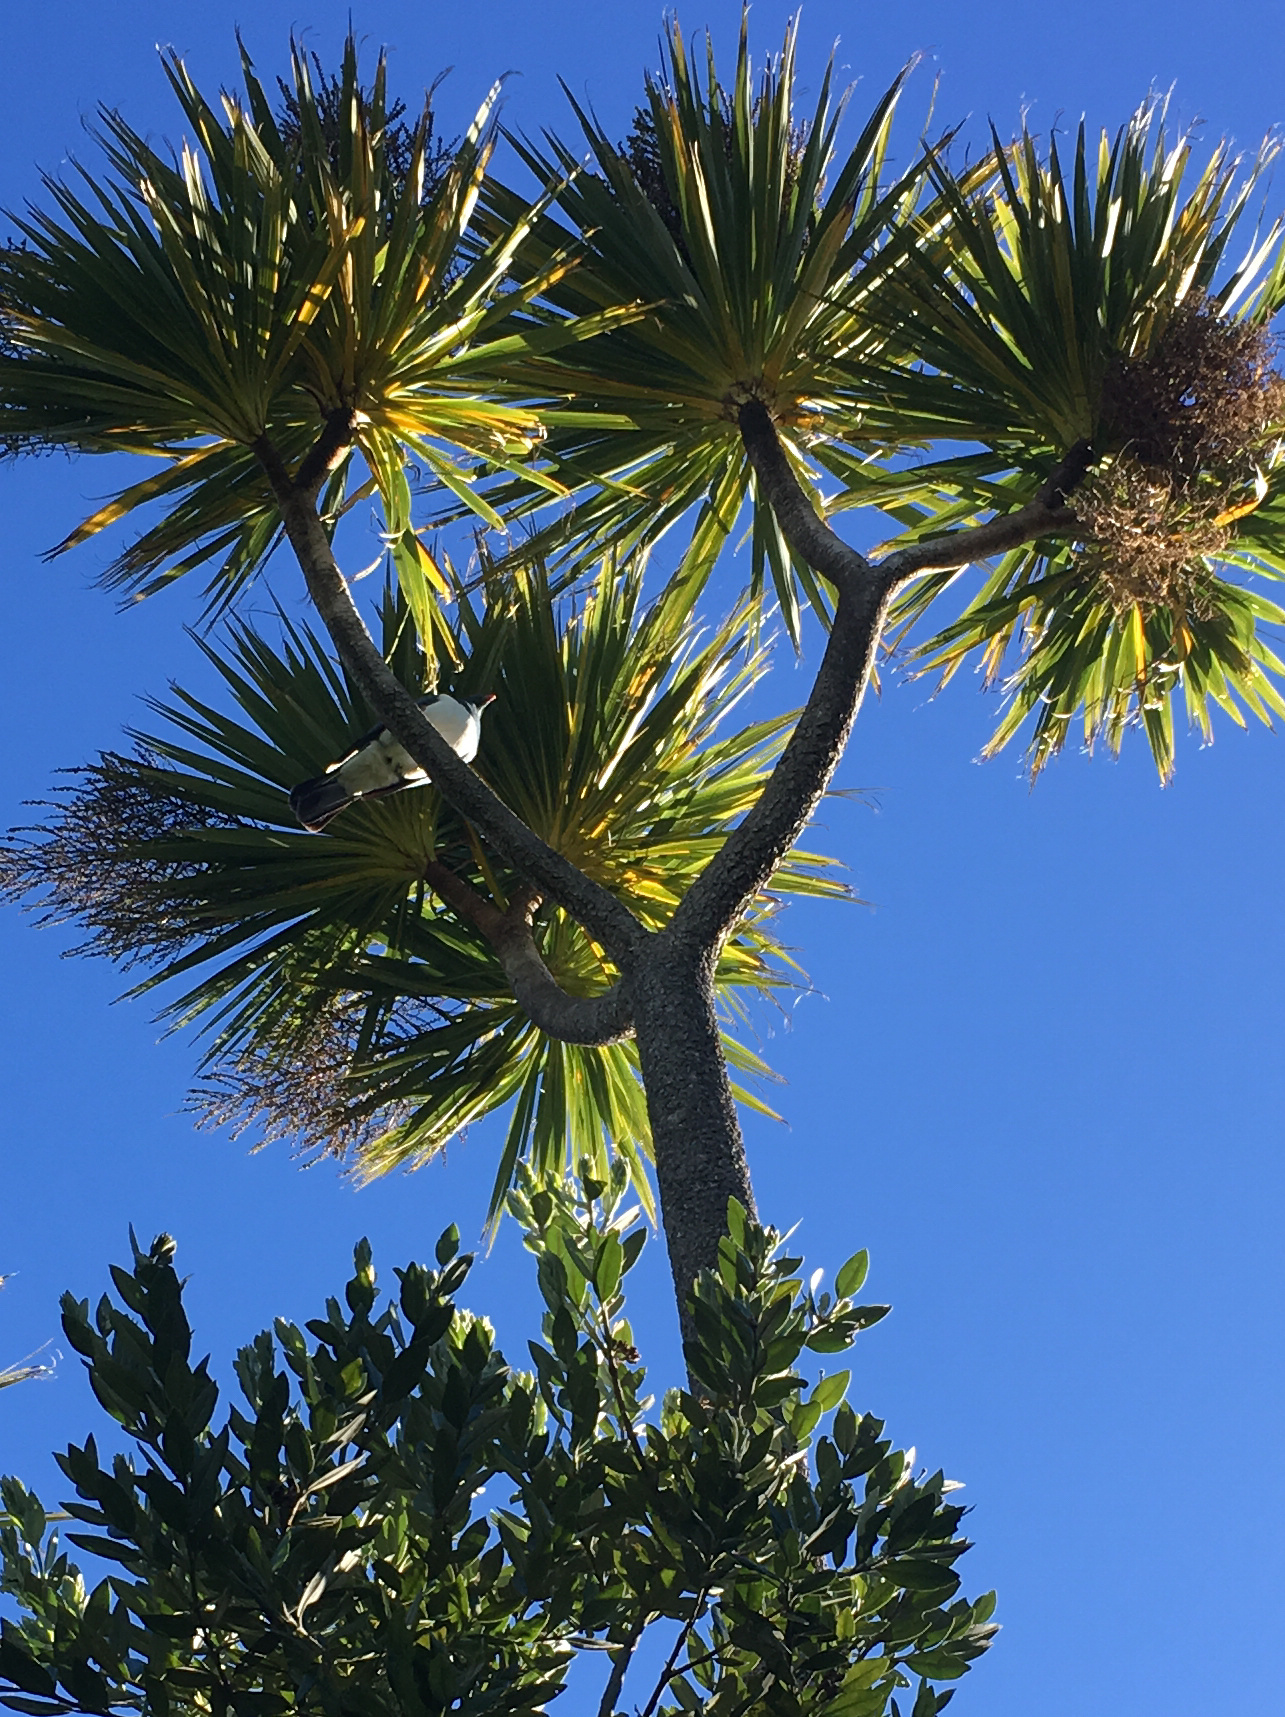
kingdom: Animalia
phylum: Chordata
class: Aves
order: Columbiformes
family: Columbidae
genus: Hemiphaga
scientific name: Hemiphaga novaeseelandiae
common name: New zealand pigeon
